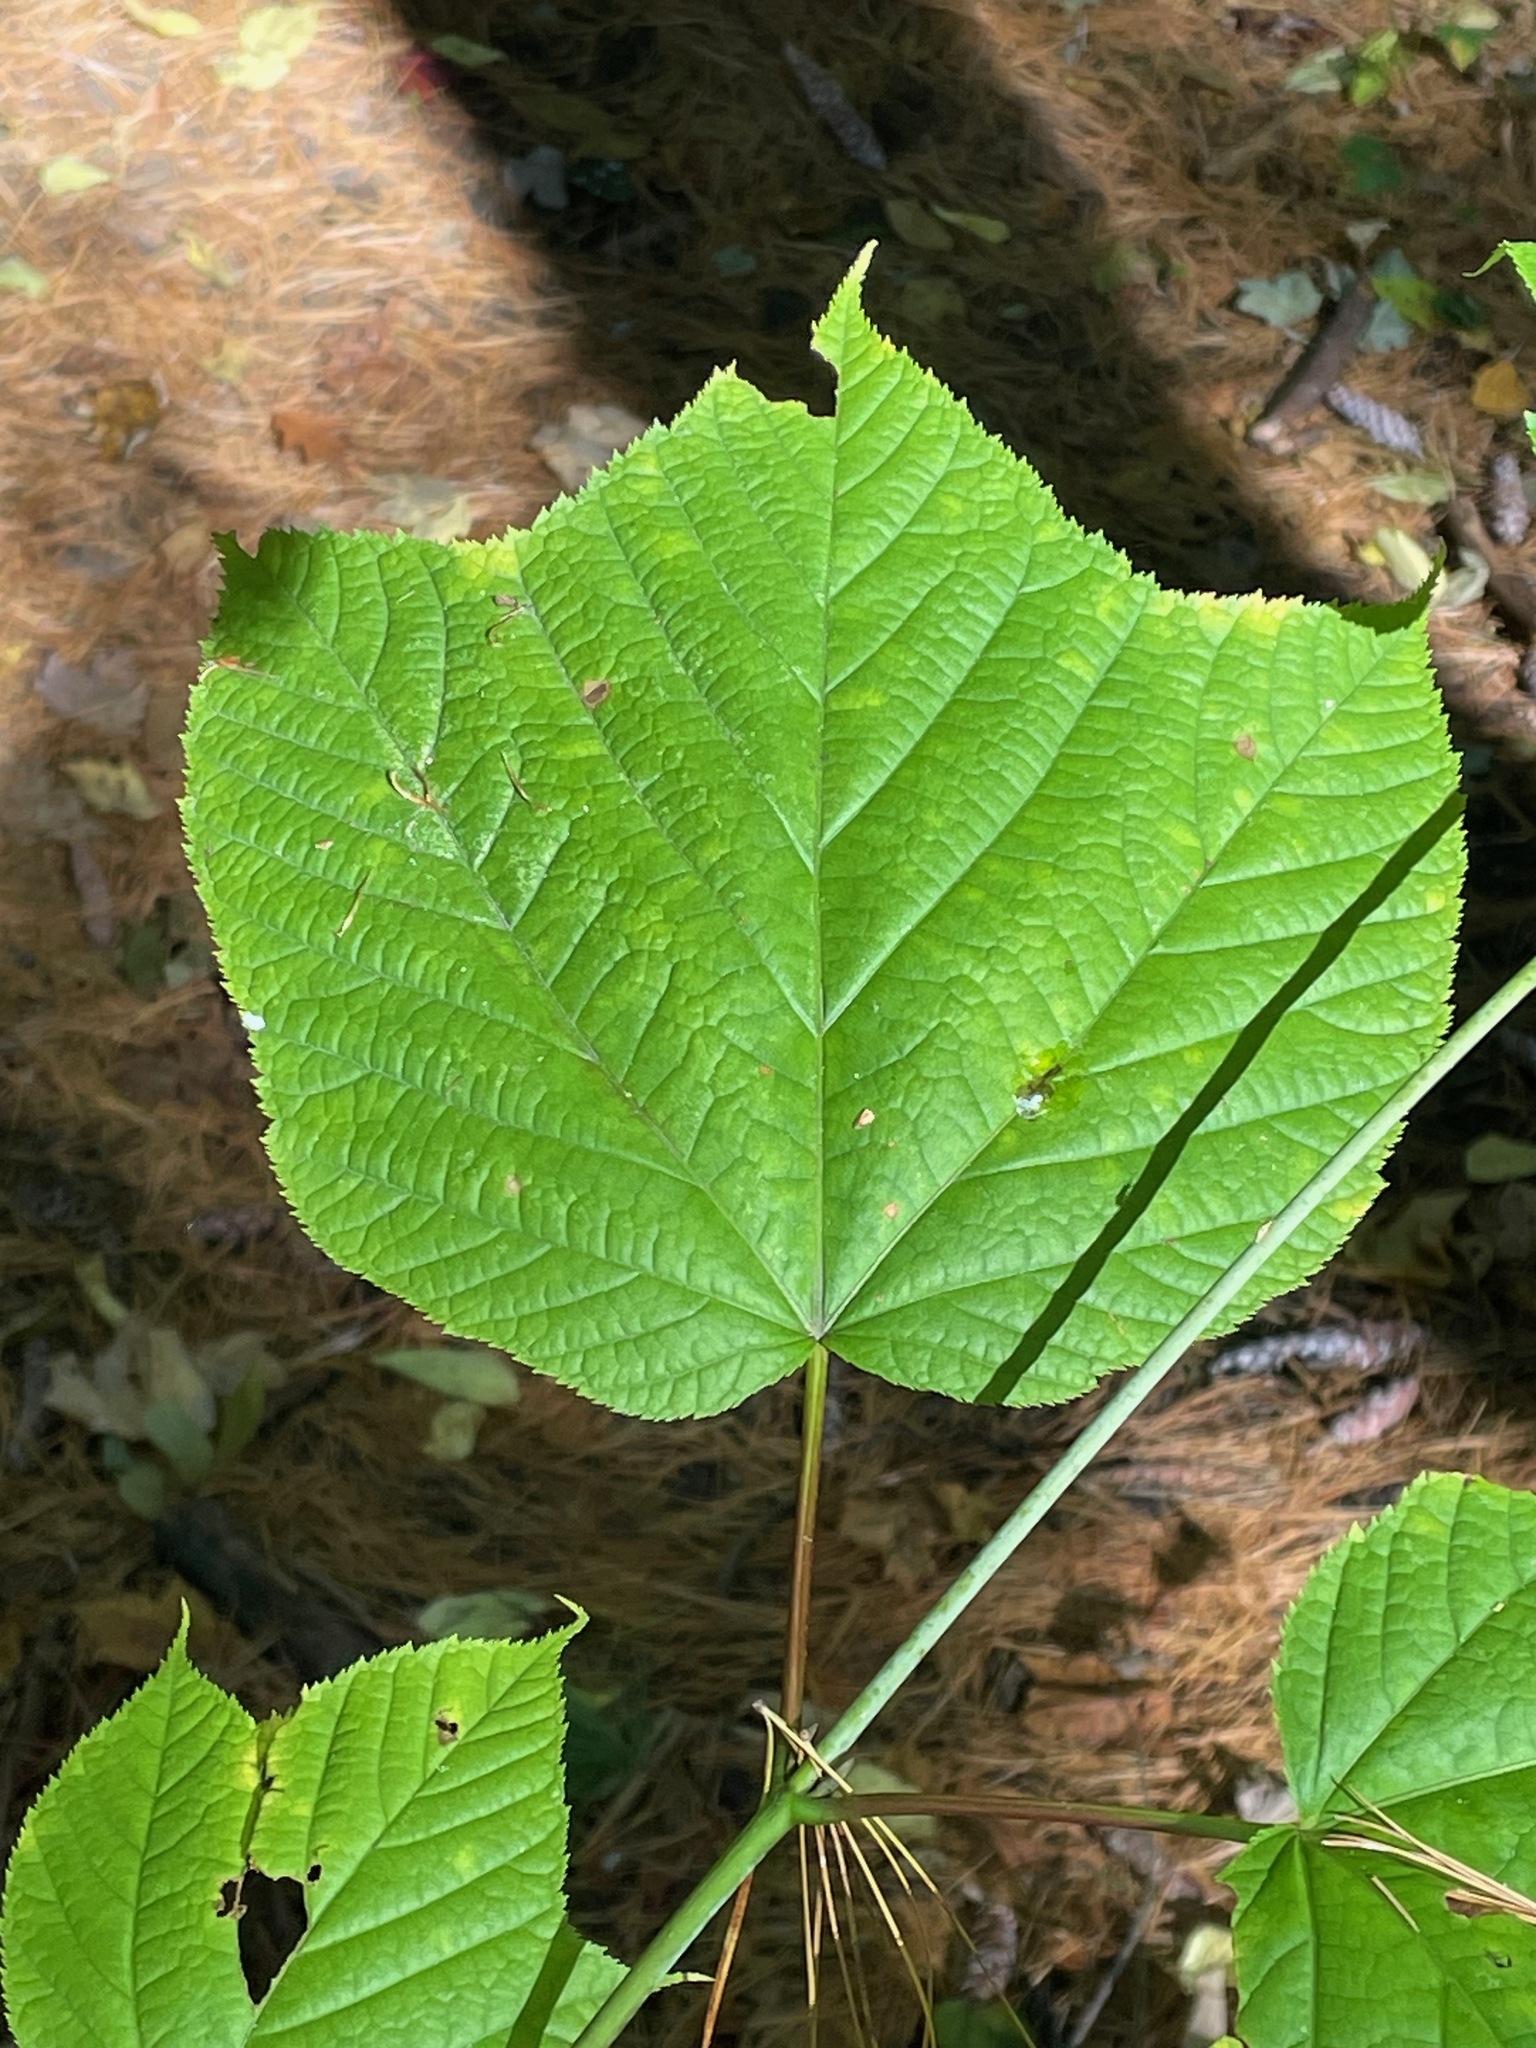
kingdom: Plantae
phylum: Tracheophyta
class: Magnoliopsida
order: Sapindales
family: Sapindaceae
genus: Acer
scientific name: Acer pensylvanicum
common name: Moosewood
